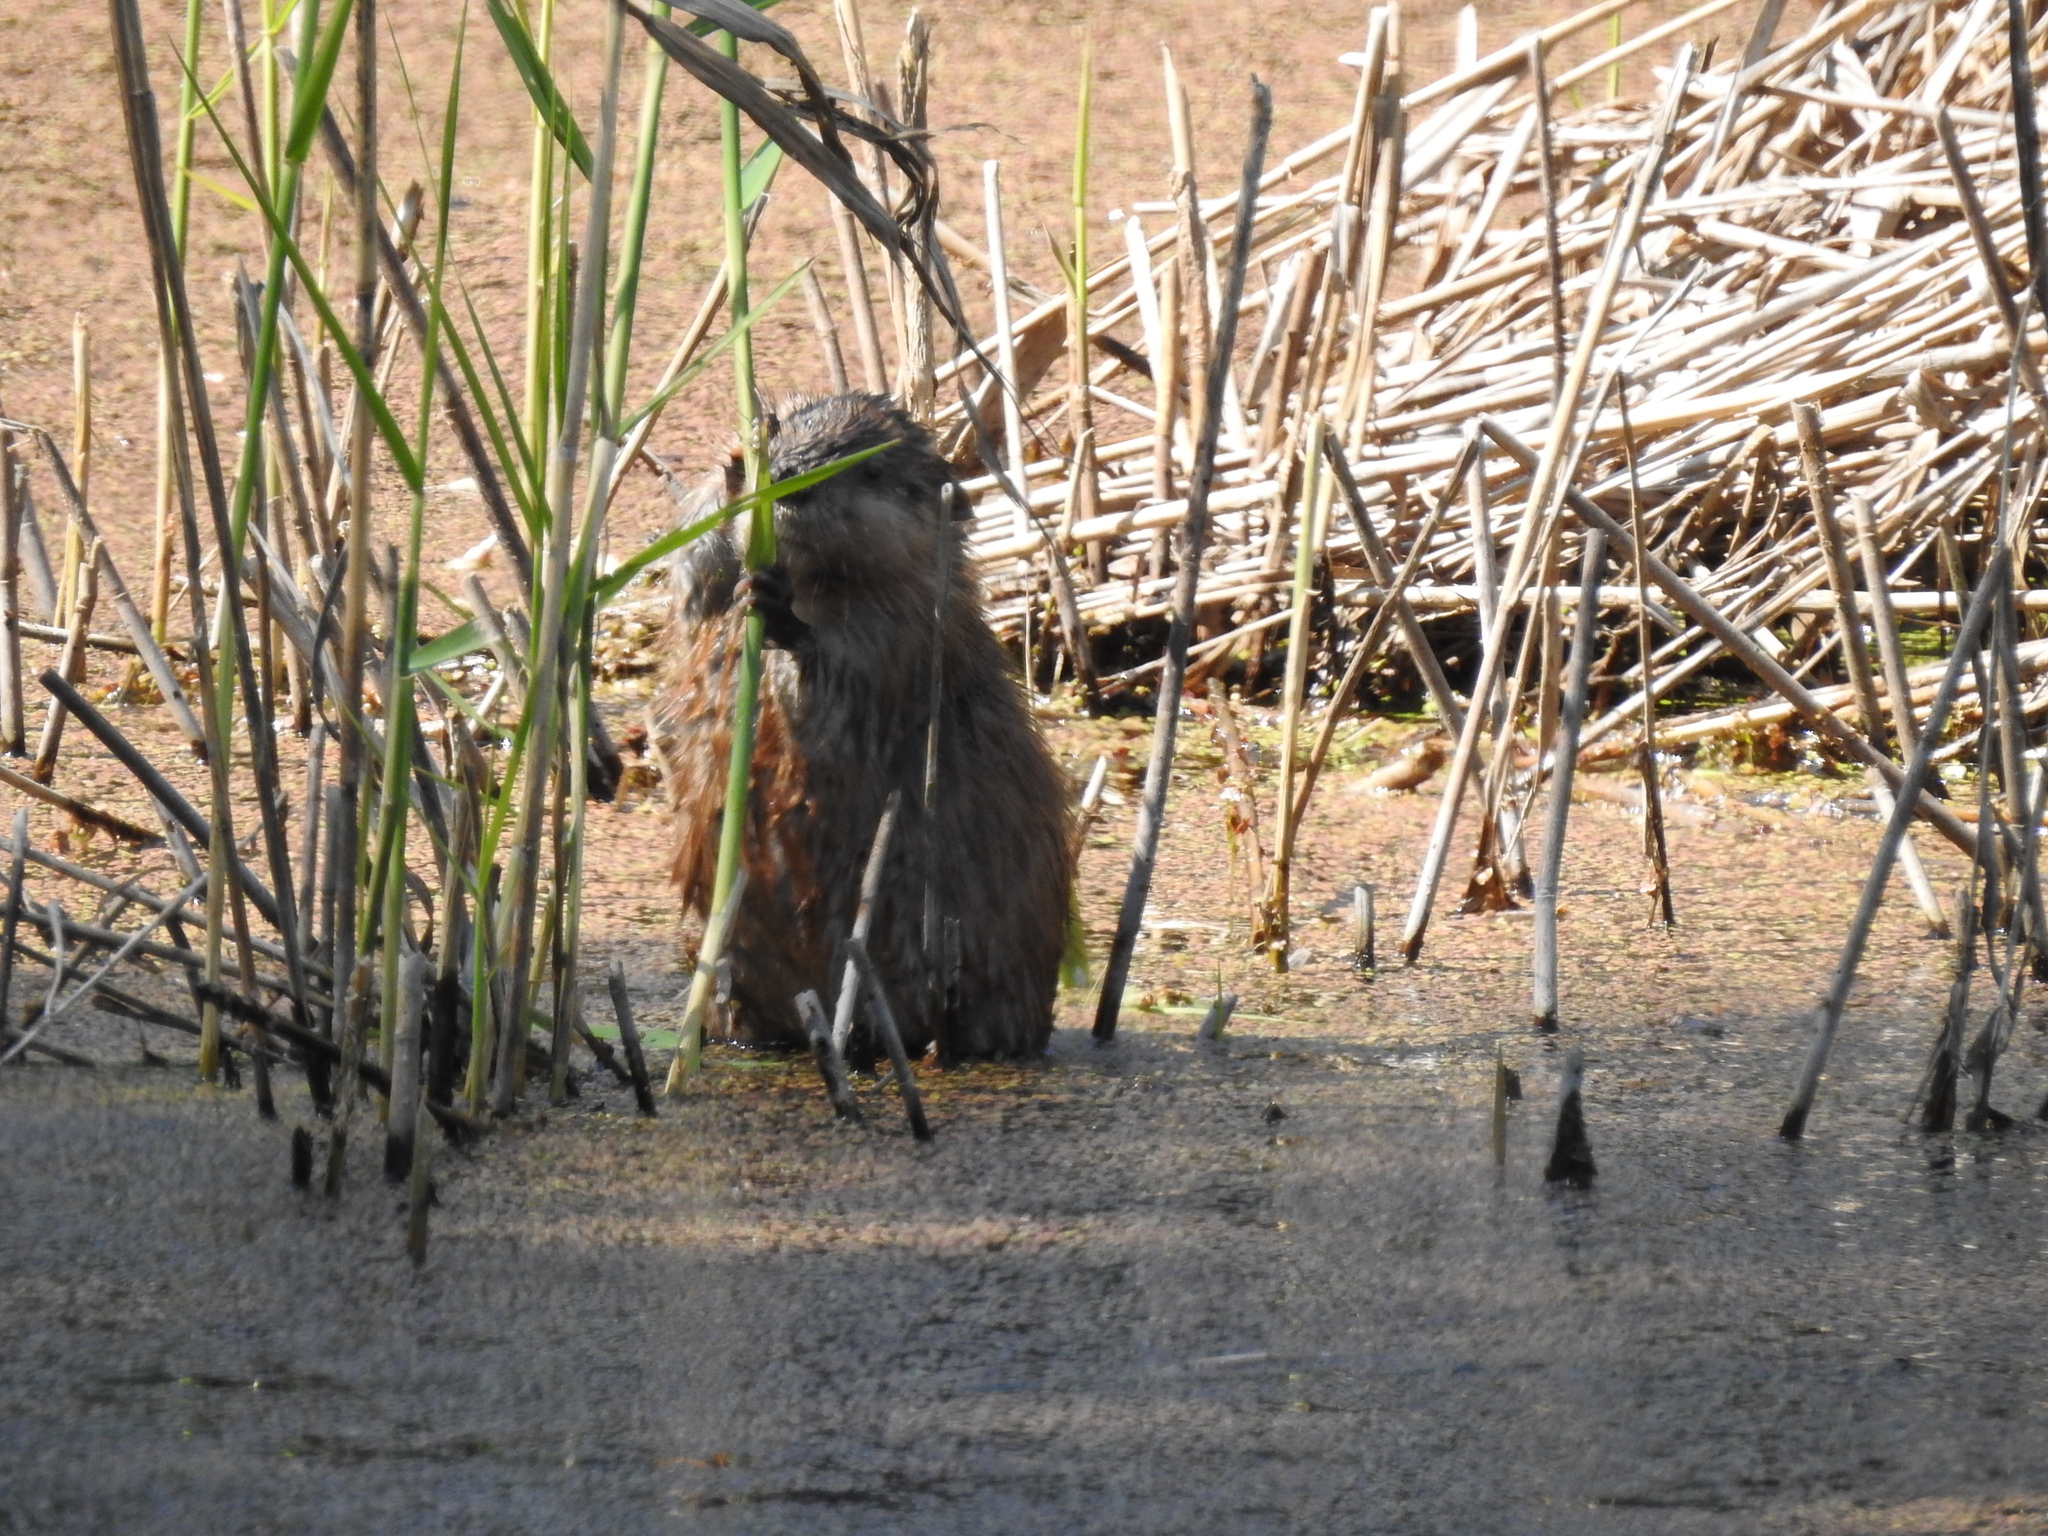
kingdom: Animalia
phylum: Chordata
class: Mammalia
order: Rodentia
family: Cricetidae
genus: Ondatra
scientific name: Ondatra zibethicus
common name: Muskrat
